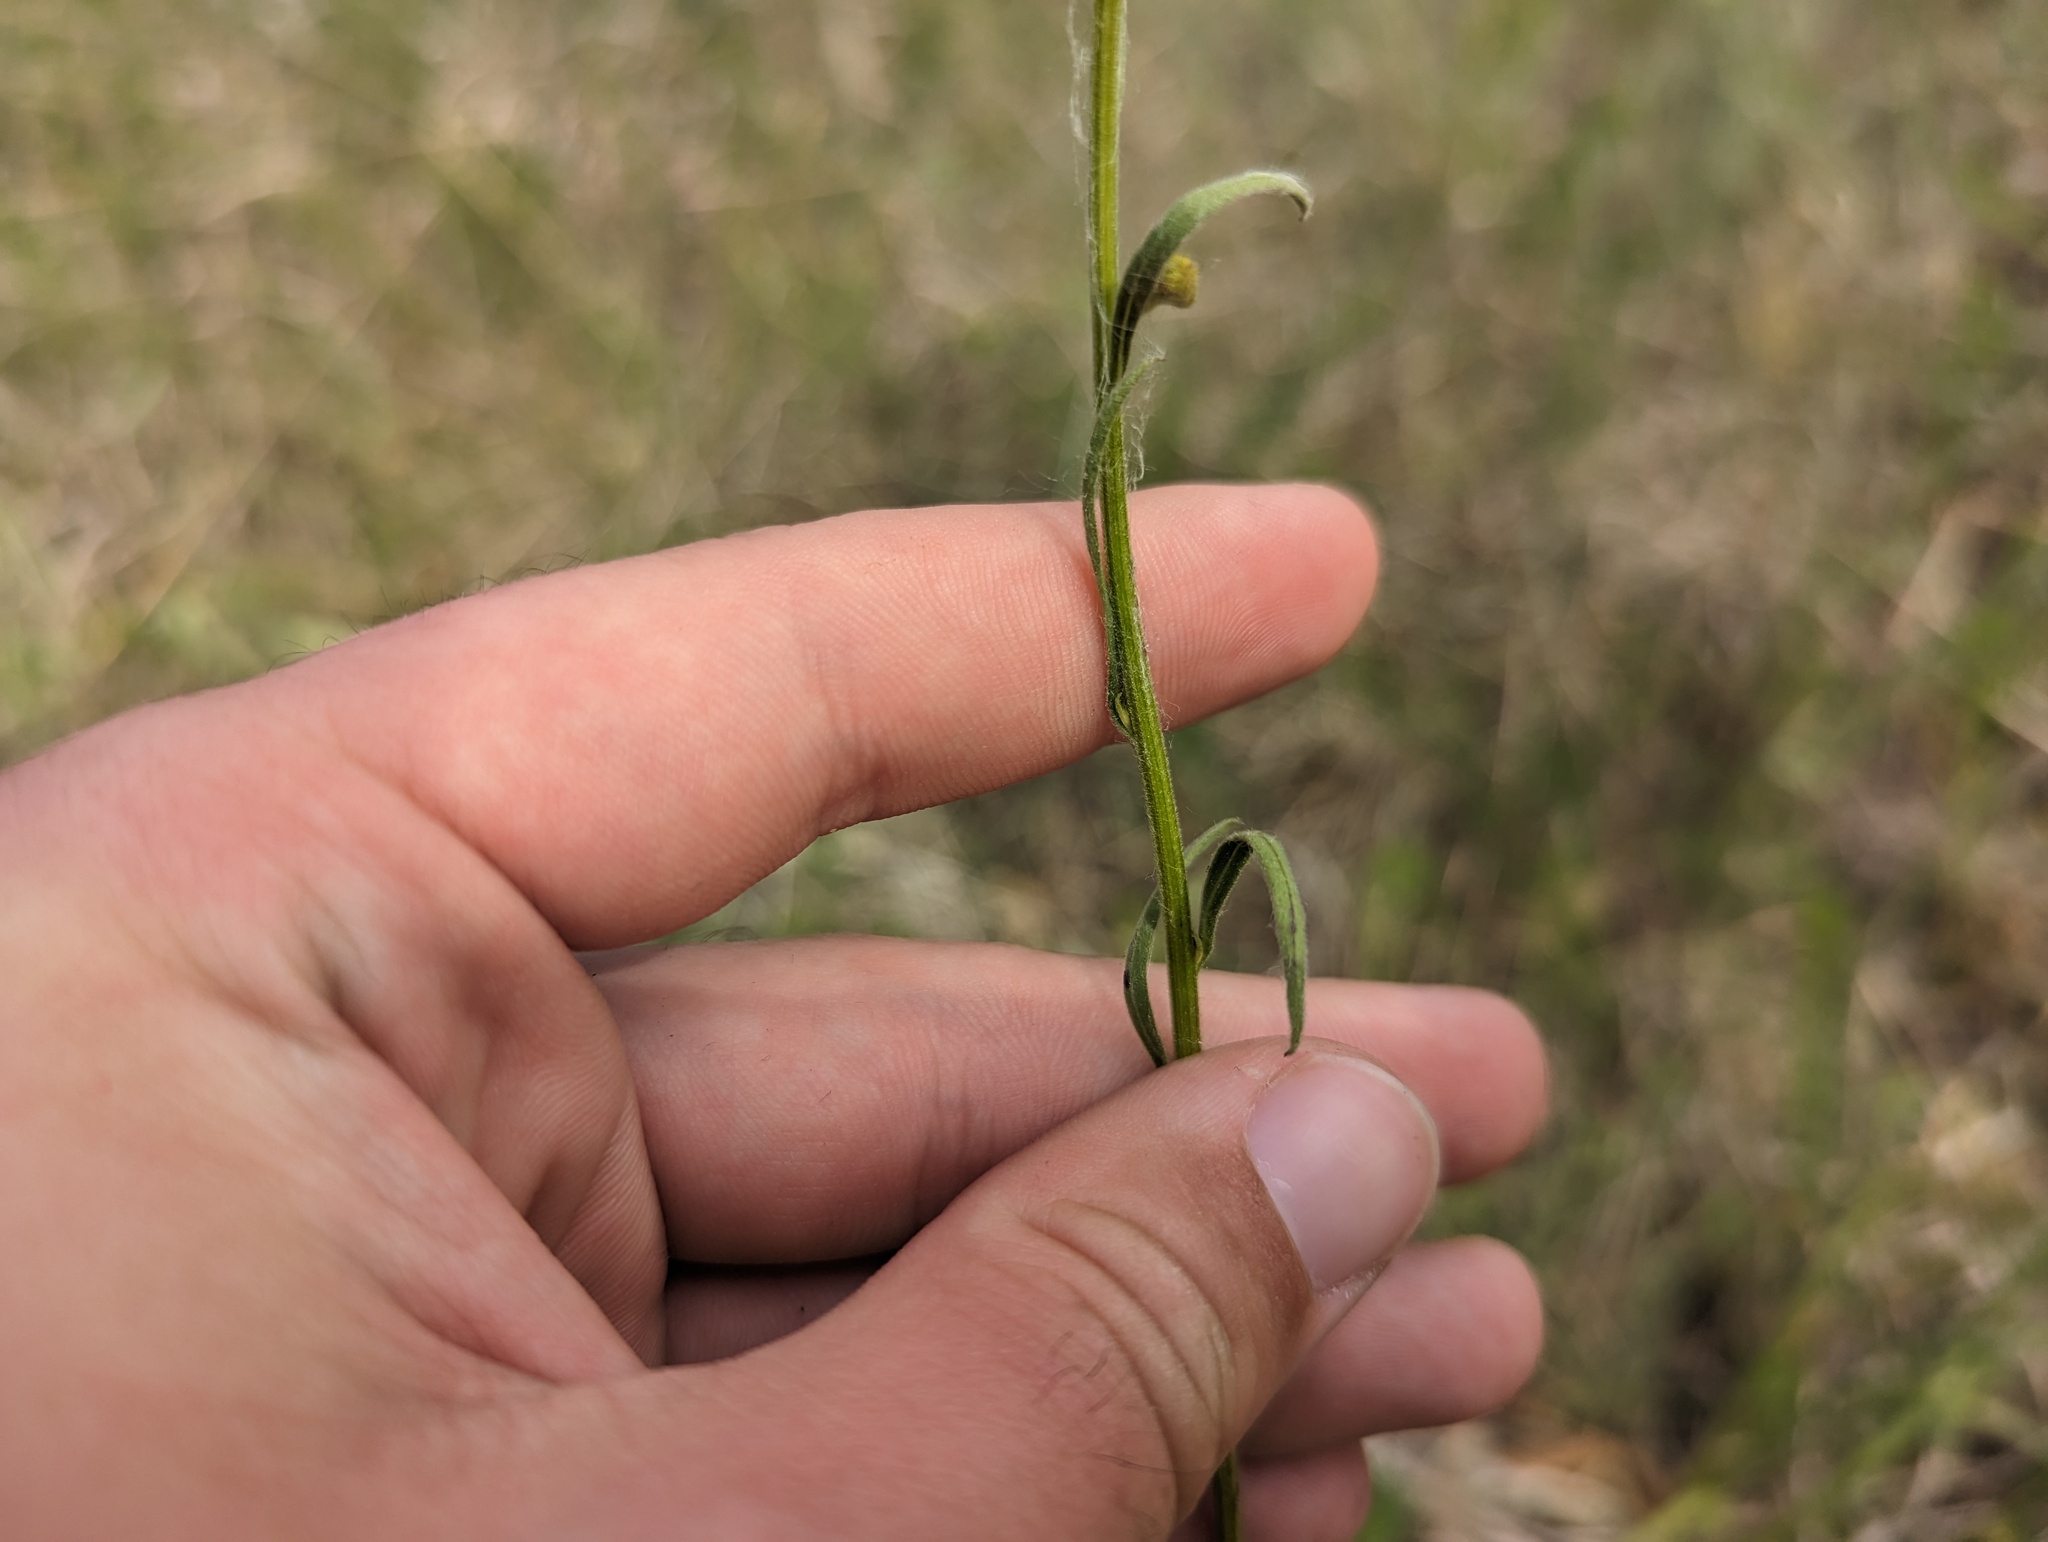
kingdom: Plantae
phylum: Tracheophyta
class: Magnoliopsida
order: Asterales
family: Asteraceae
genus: Erigeron
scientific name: Erigeron strigosus
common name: Common eastern fleabane
